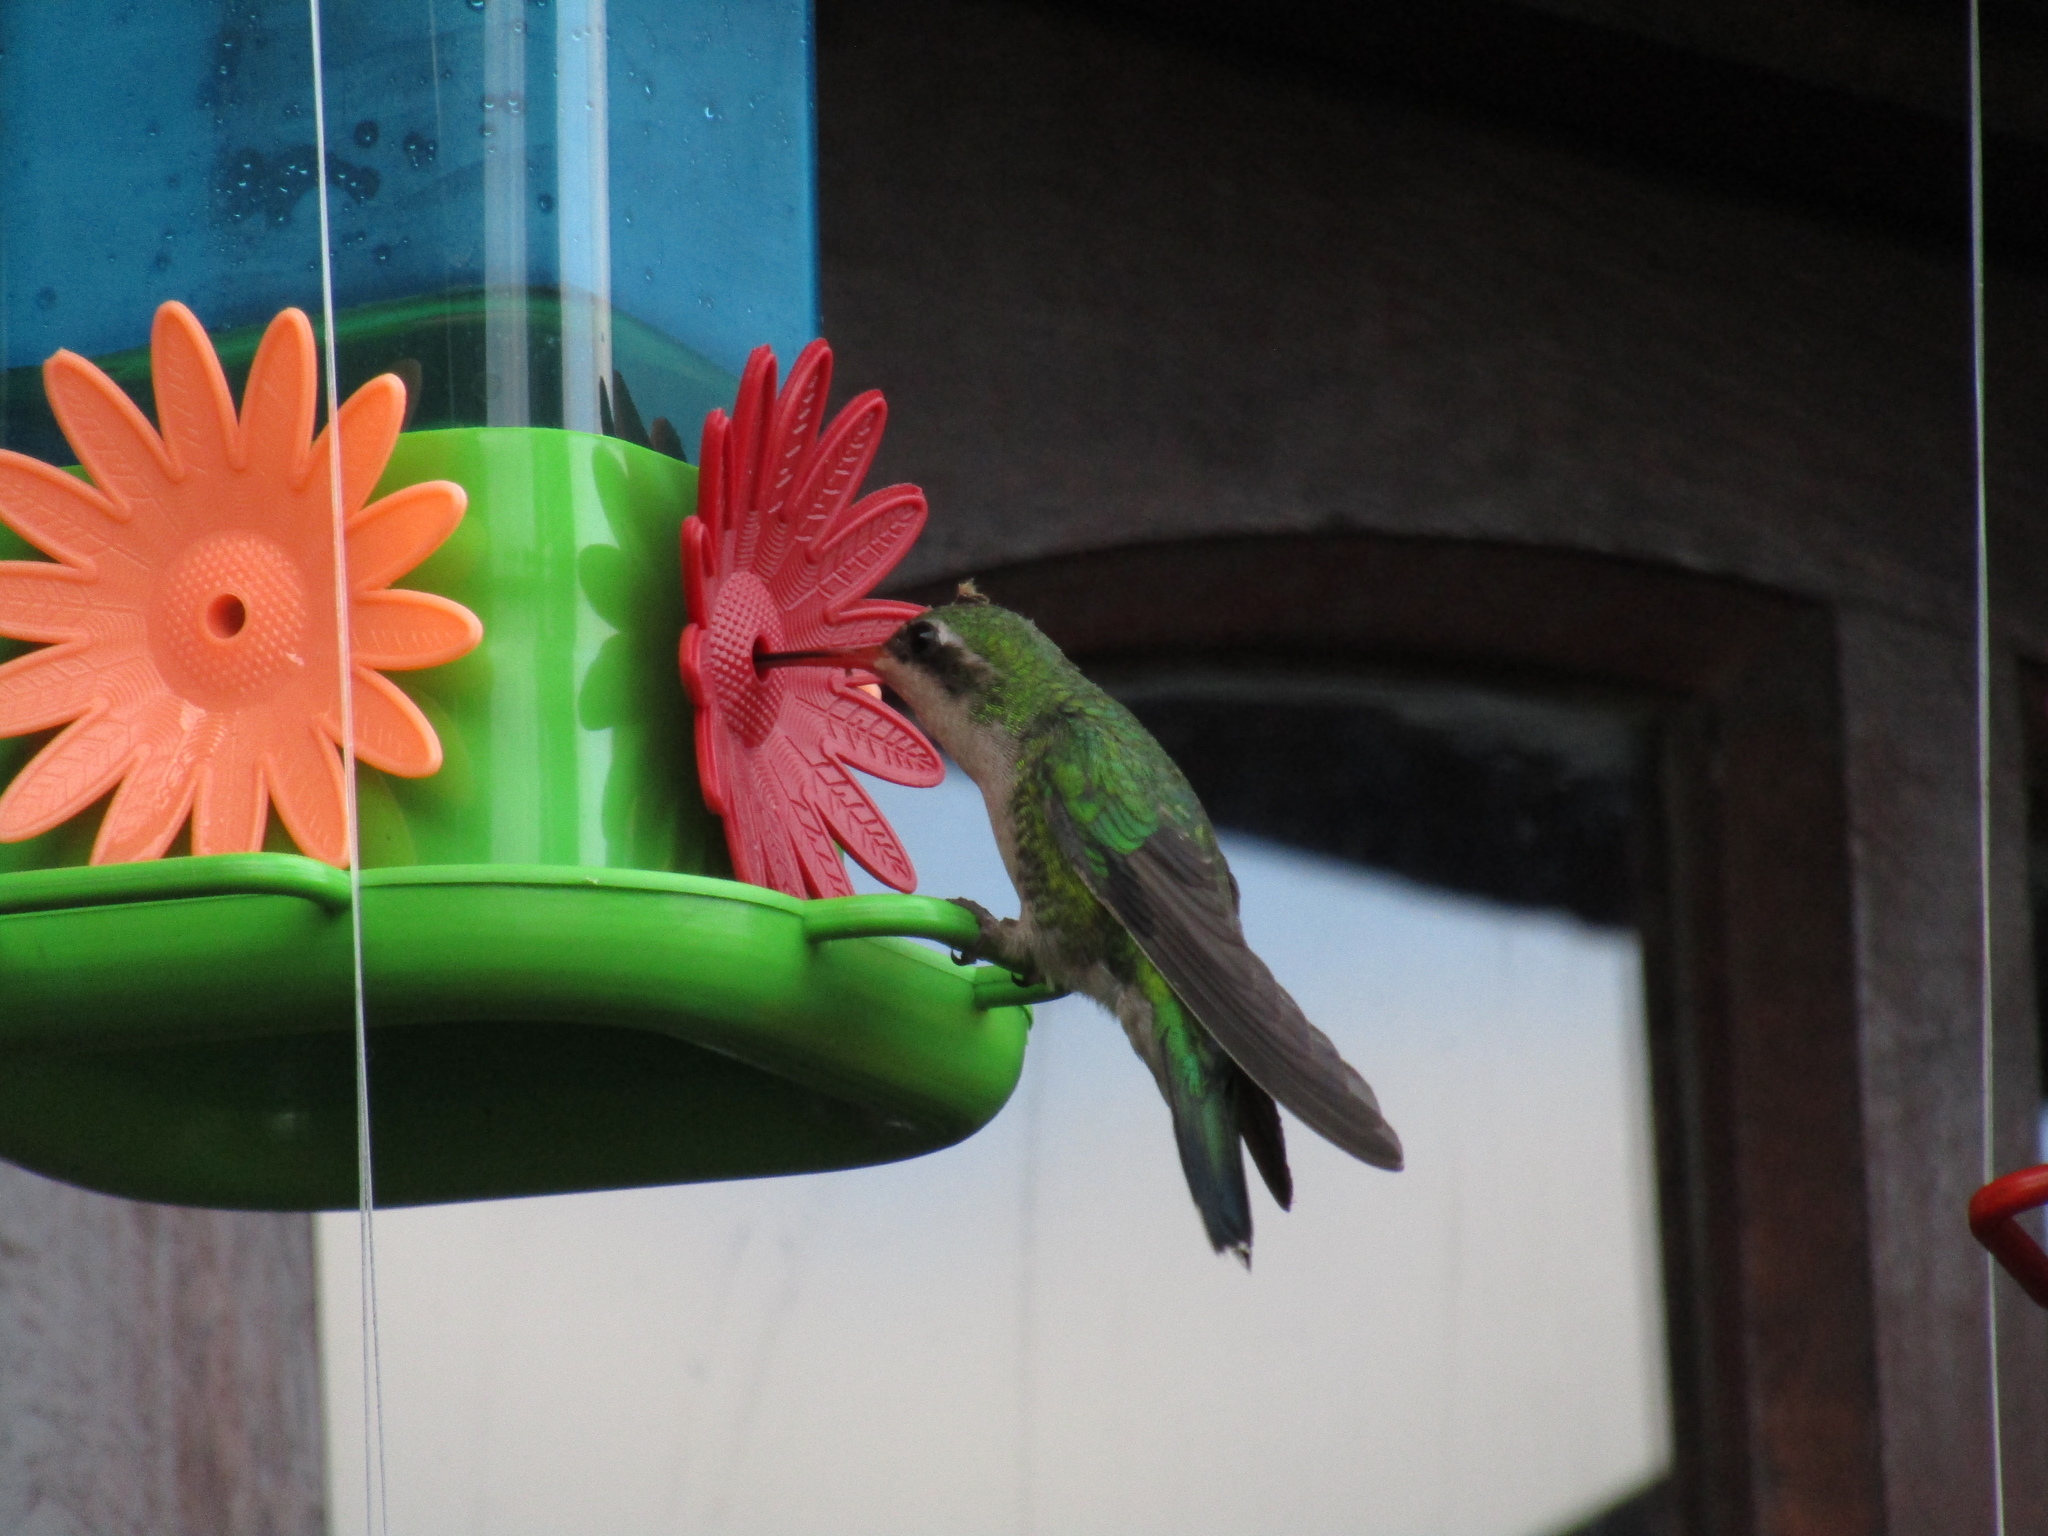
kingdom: Animalia
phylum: Chordata
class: Aves
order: Apodiformes
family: Trochilidae
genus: Chlorostilbon
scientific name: Chlorostilbon lucidus
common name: Glittering-bellied emerald
